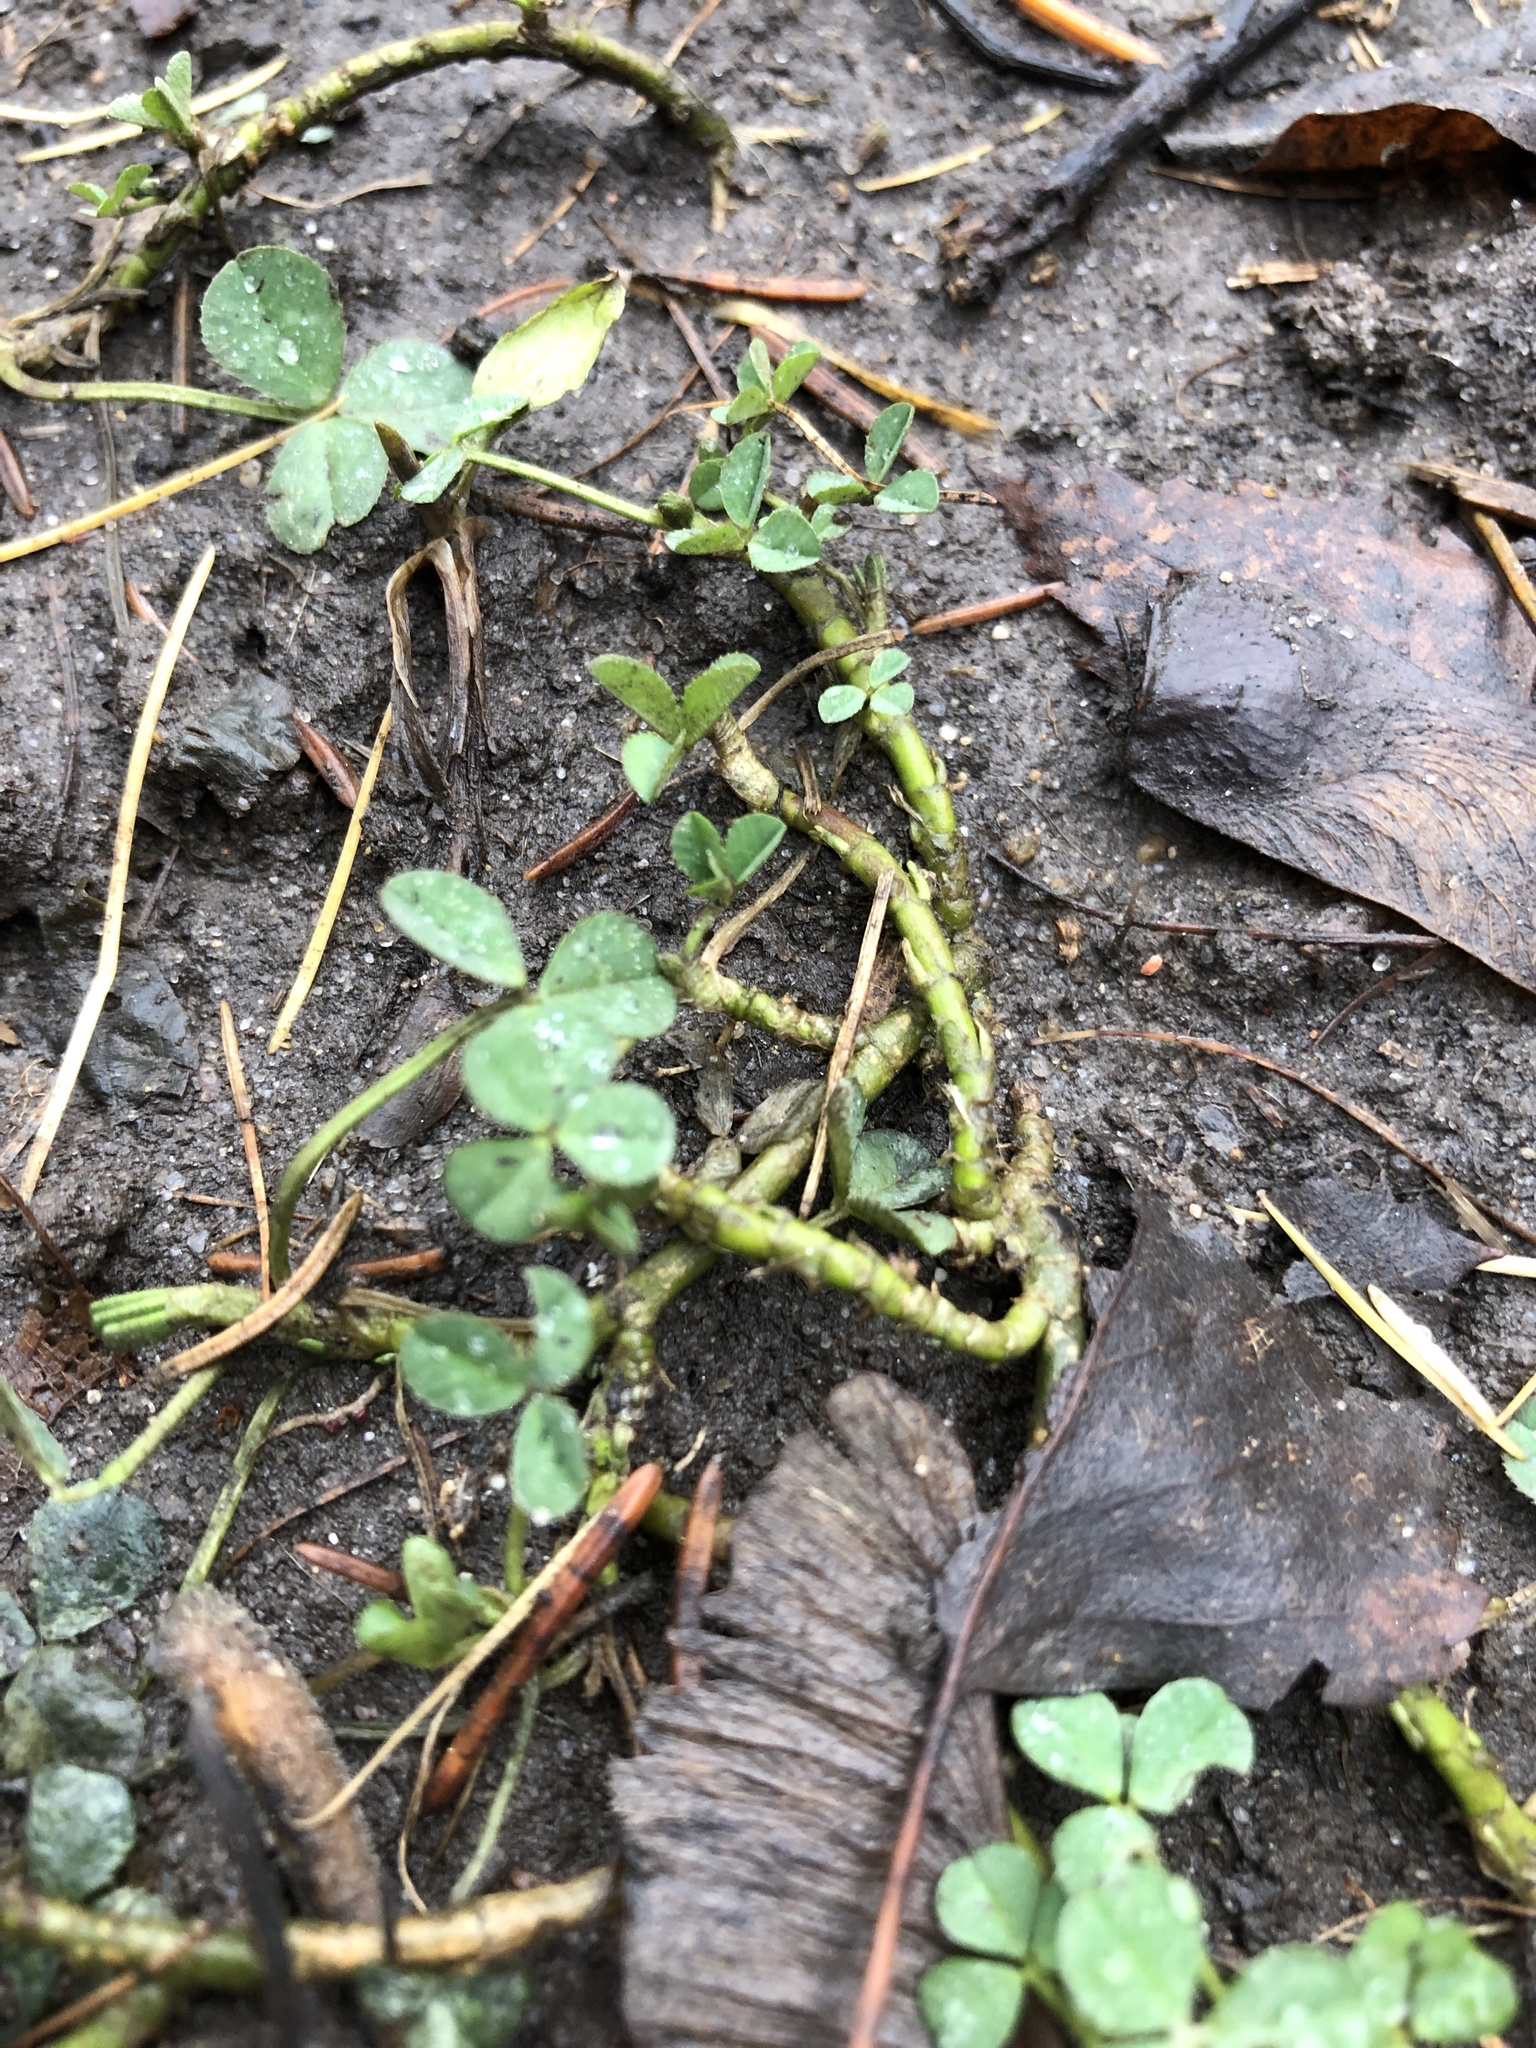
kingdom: Plantae
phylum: Tracheophyta
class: Magnoliopsida
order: Fabales
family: Fabaceae
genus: Trifolium
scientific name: Trifolium repens
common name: White clover
